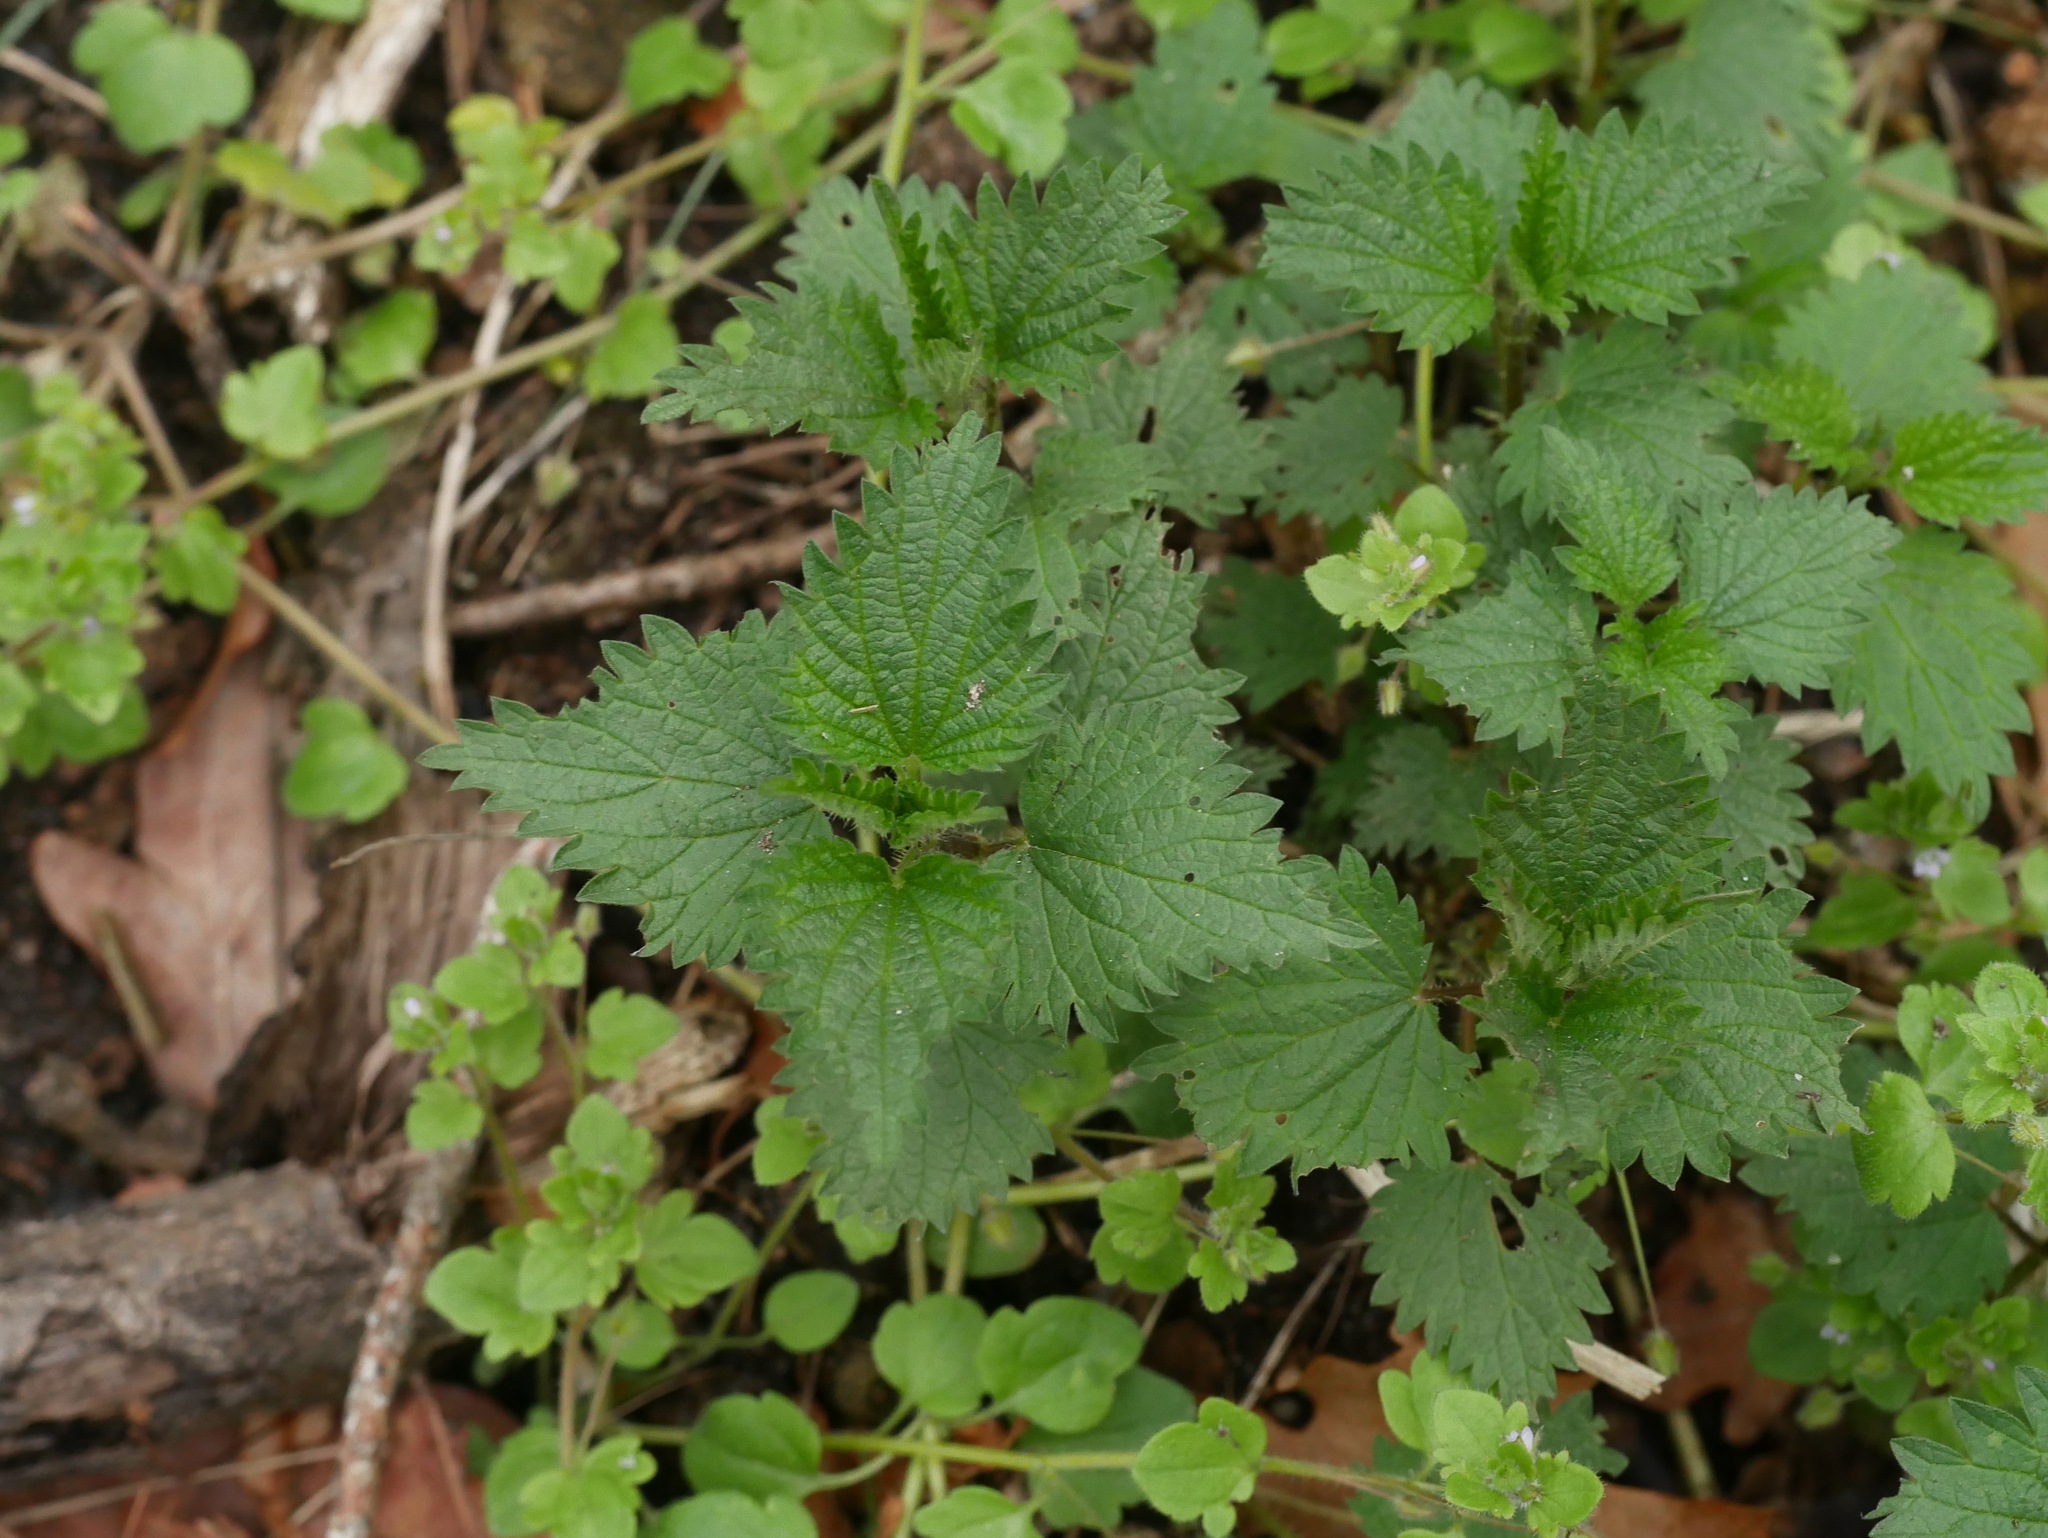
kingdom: Plantae
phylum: Tracheophyta
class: Magnoliopsida
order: Rosales
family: Urticaceae
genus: Urtica
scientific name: Urtica dioica
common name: Common nettle
